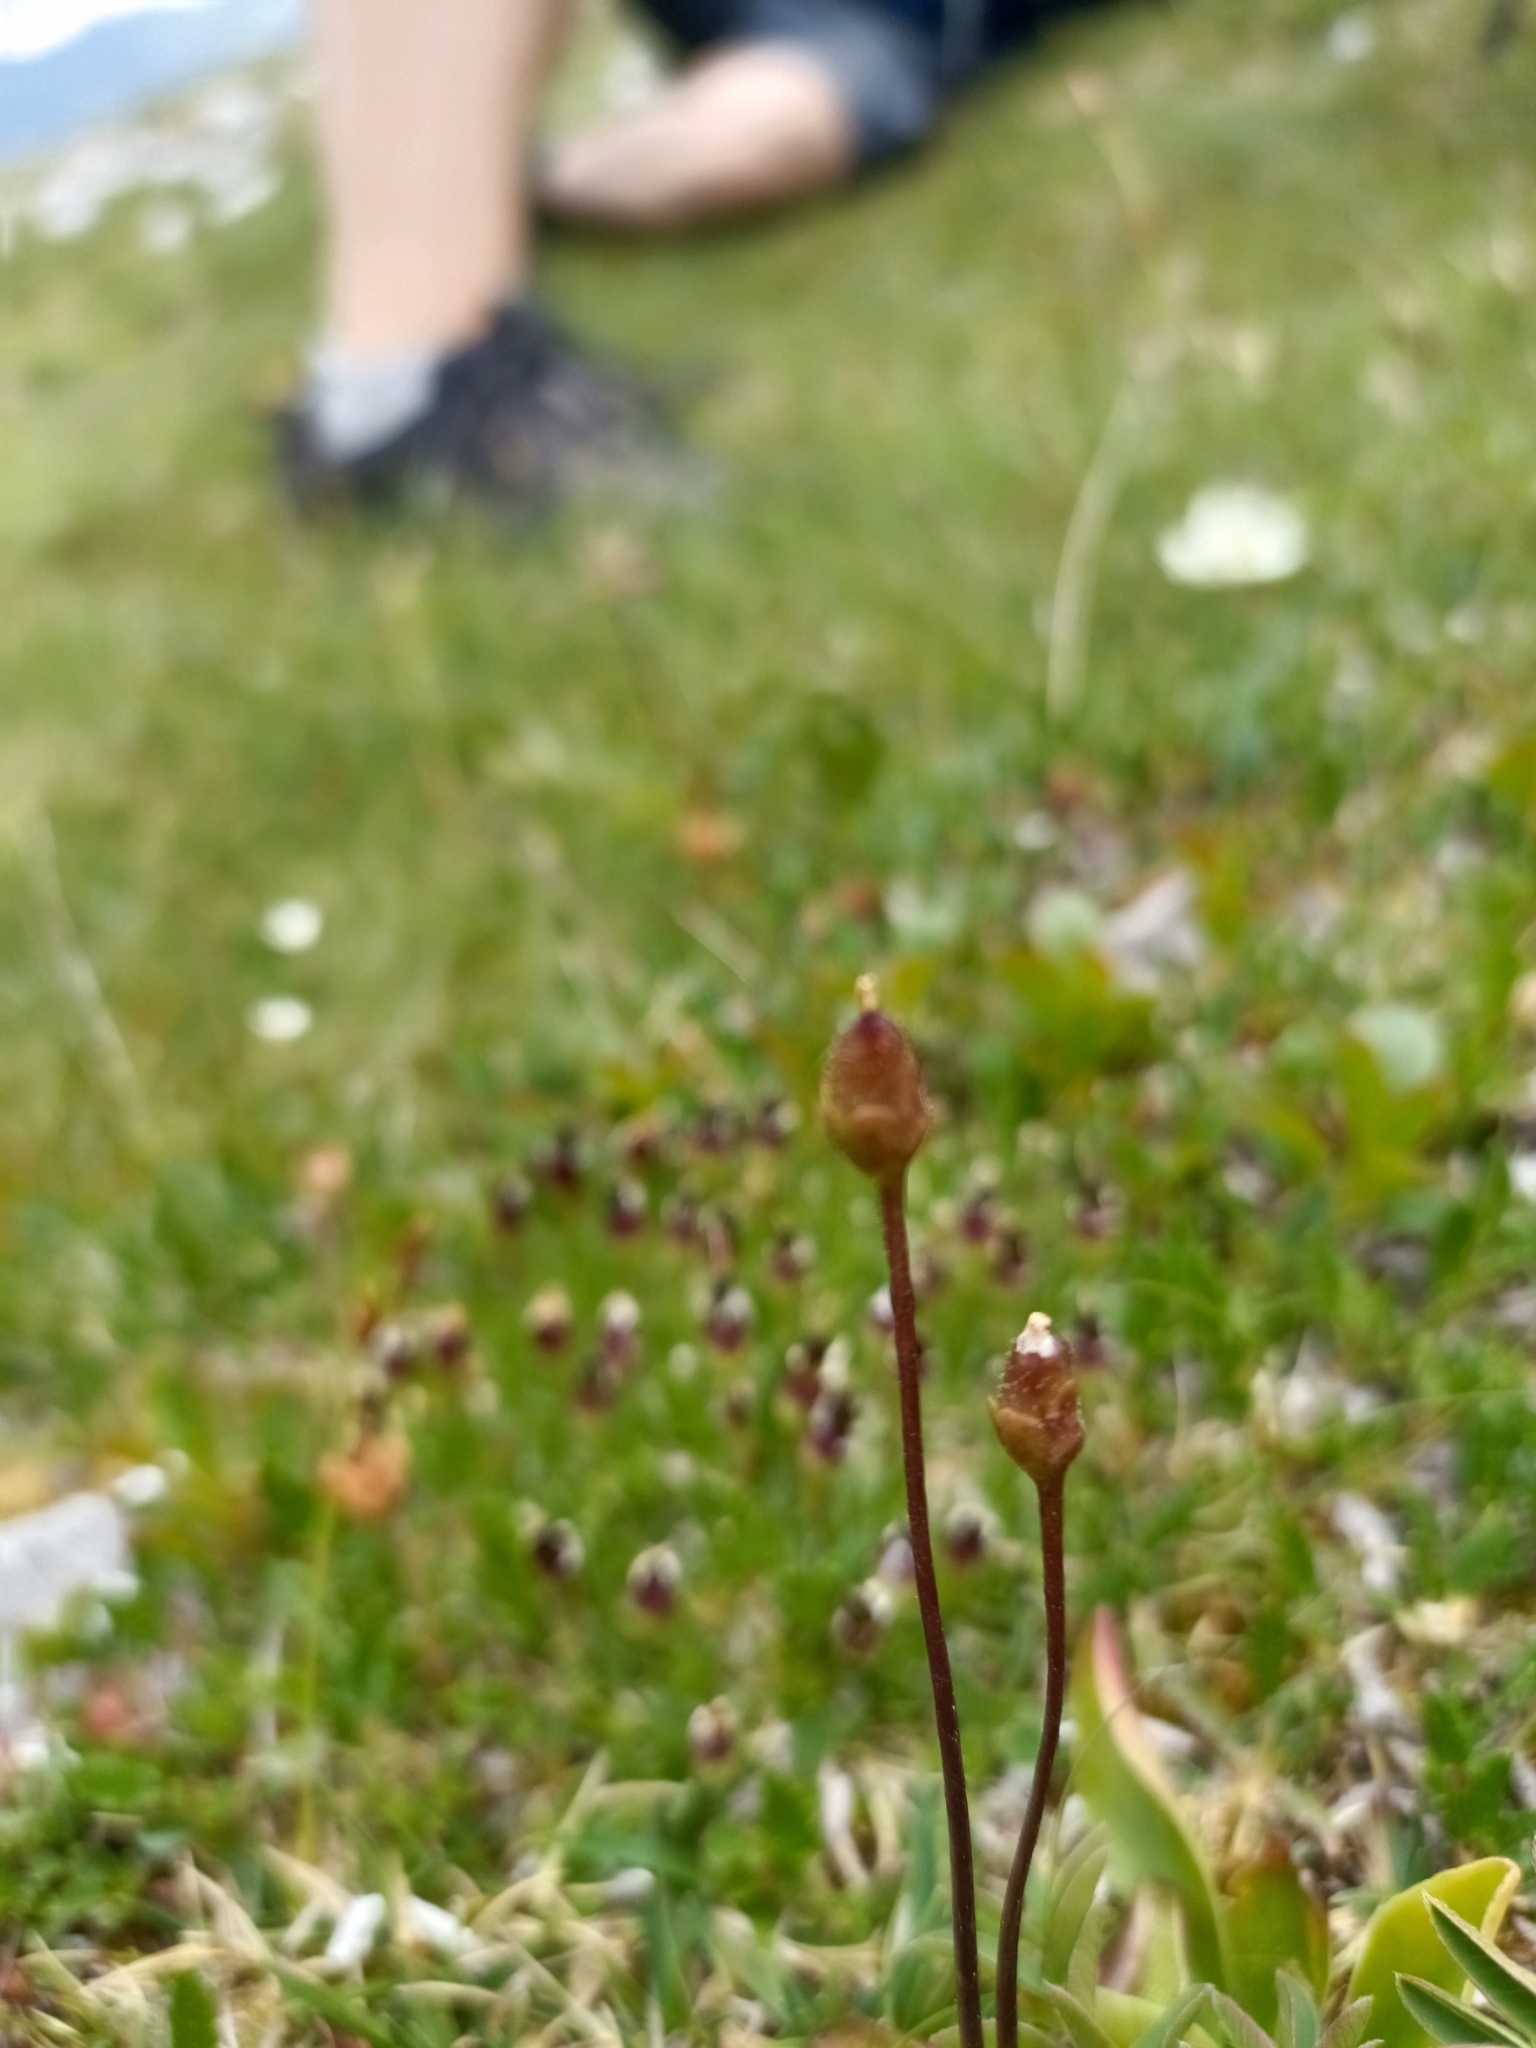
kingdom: Plantae
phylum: Tracheophyta
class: Magnoliopsida
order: Lamiales
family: Lentibulariaceae
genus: Pinguicula
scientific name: Pinguicula alpina
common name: Alpine butterwort
